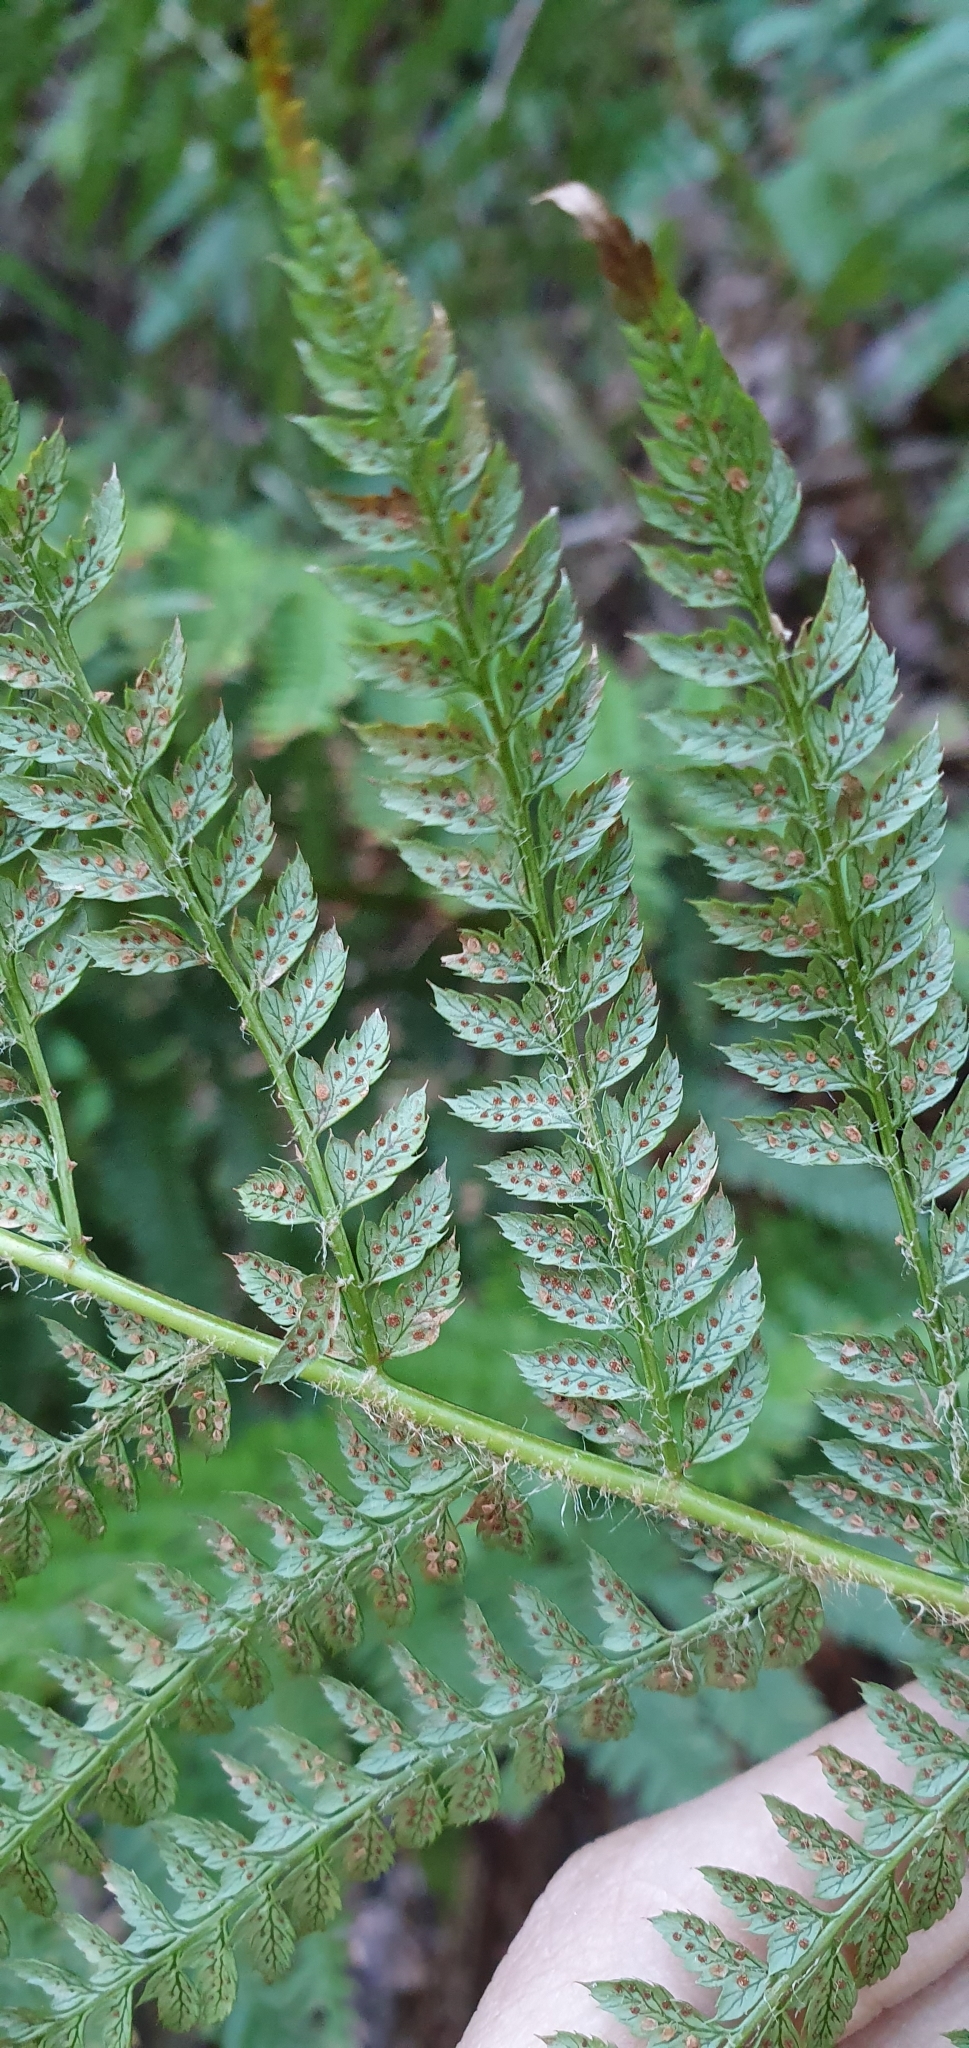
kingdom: Plantae
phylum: Tracheophyta
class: Polypodiopsida
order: Polypodiales
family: Dryopteridaceae
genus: Polystichum
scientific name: Polystichum setiferum
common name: Soft shield-fern
